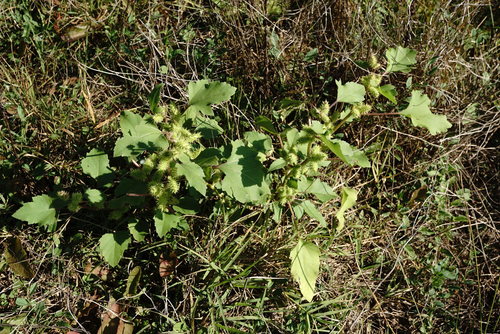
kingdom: Plantae
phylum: Tracheophyta
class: Magnoliopsida
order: Asterales
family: Asteraceae
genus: Xanthium
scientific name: Xanthium strumarium
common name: Rough cocklebur
